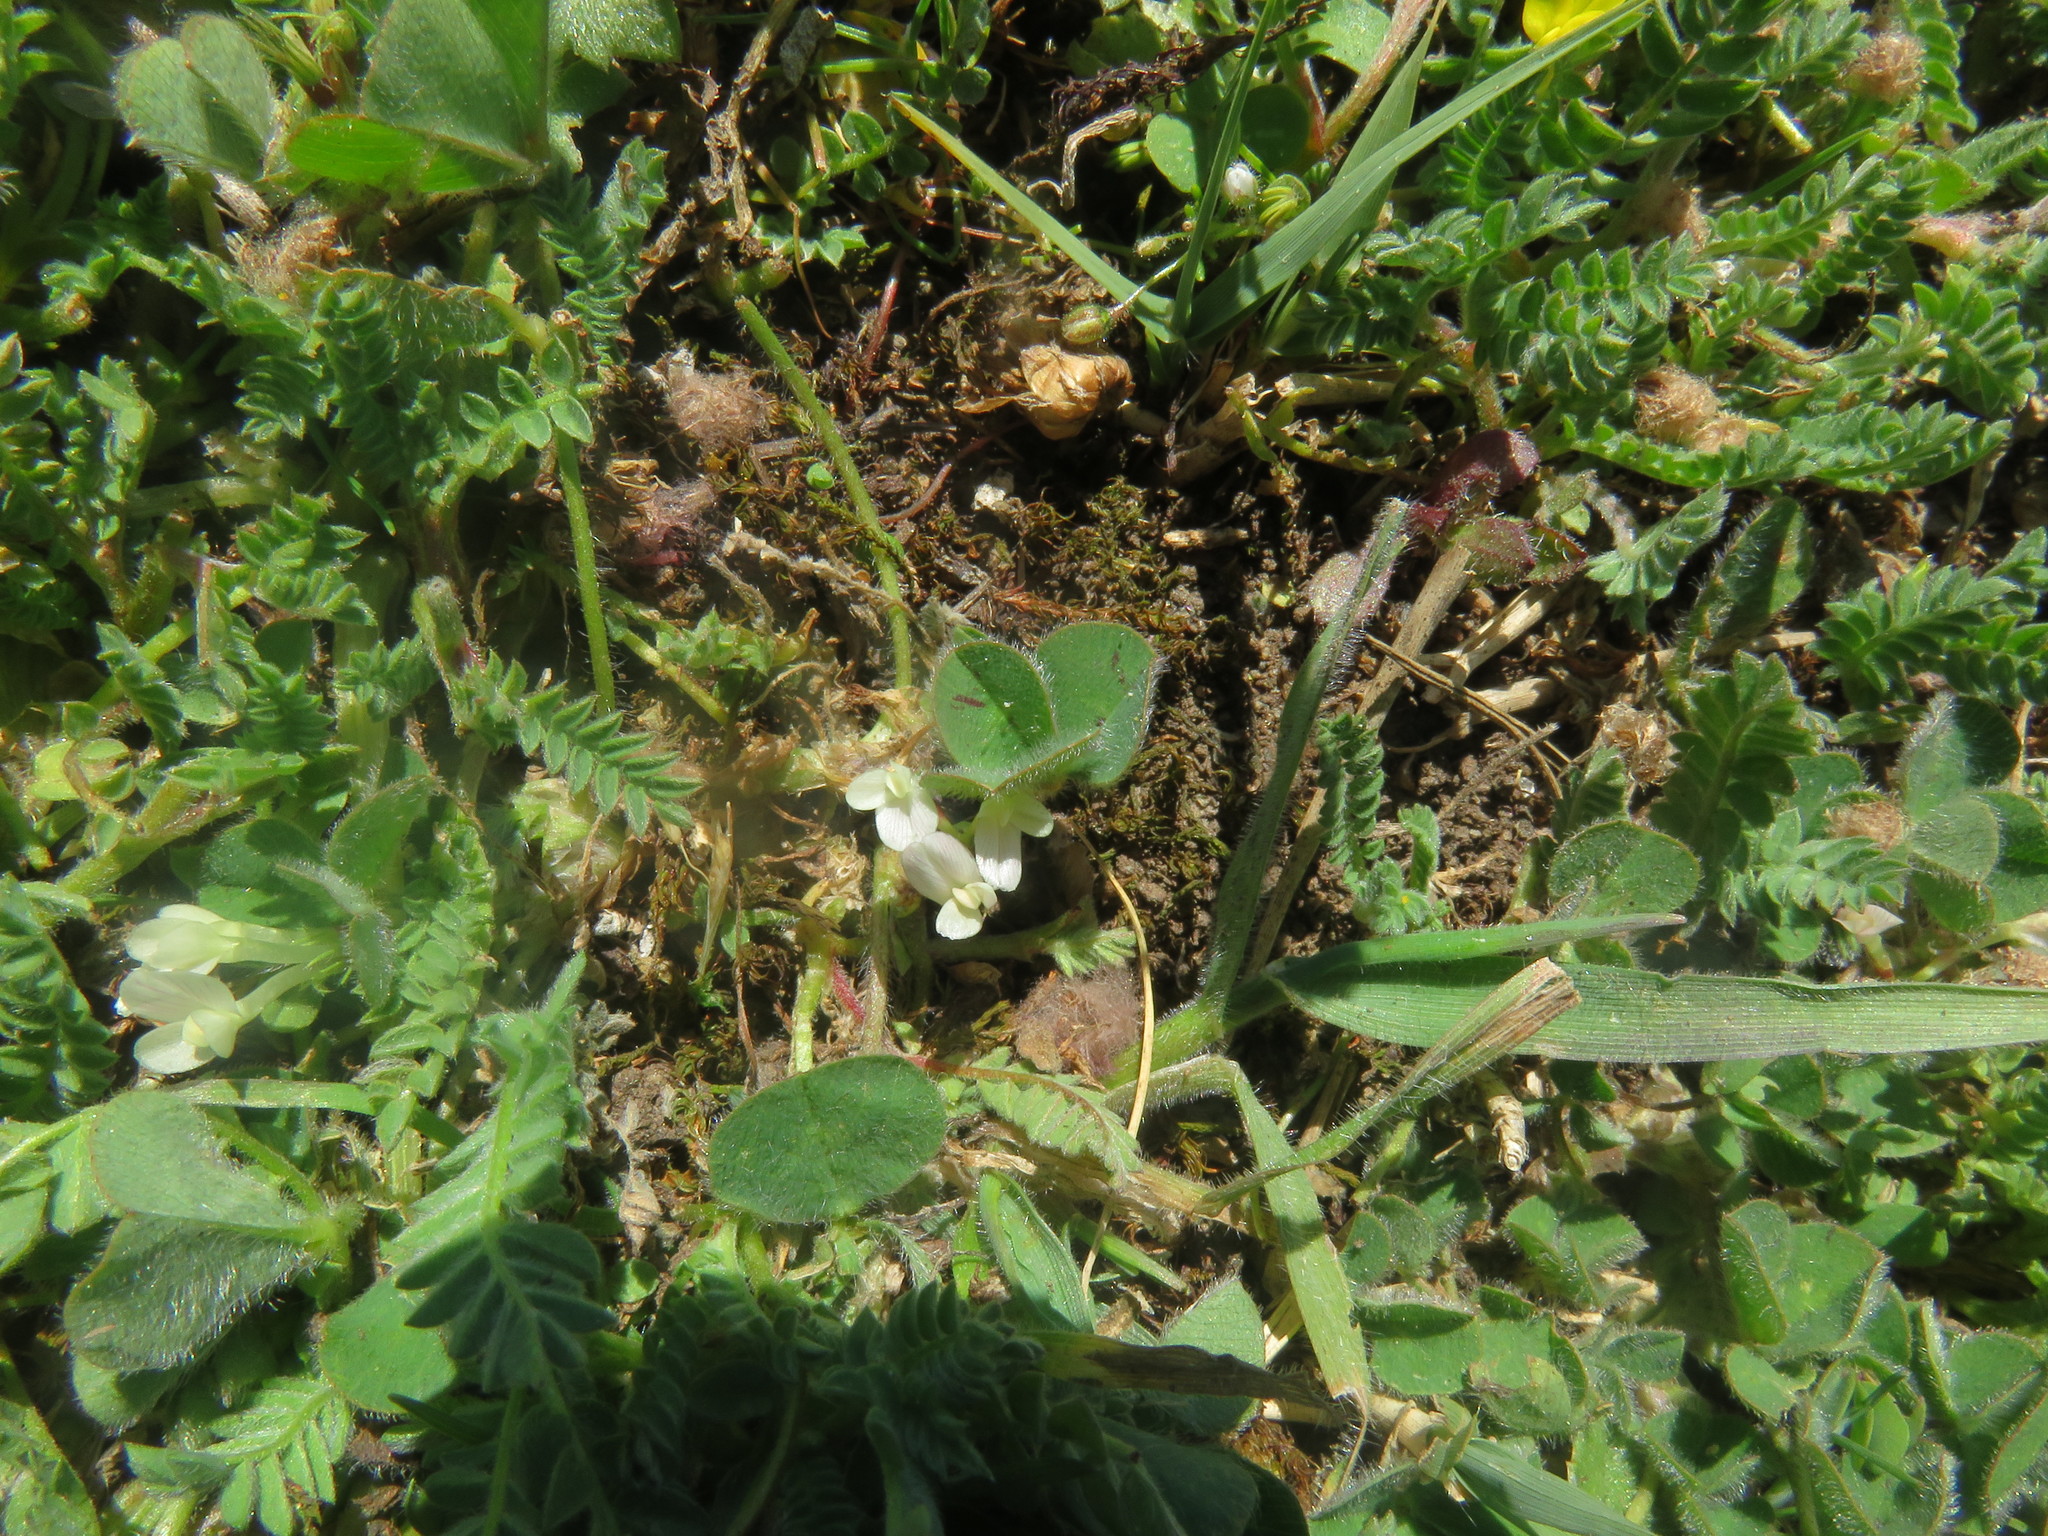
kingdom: Plantae
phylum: Tracheophyta
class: Magnoliopsida
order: Fabales
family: Fabaceae
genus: Trifolium
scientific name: Trifolium subterraneum
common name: Subterranean clover
